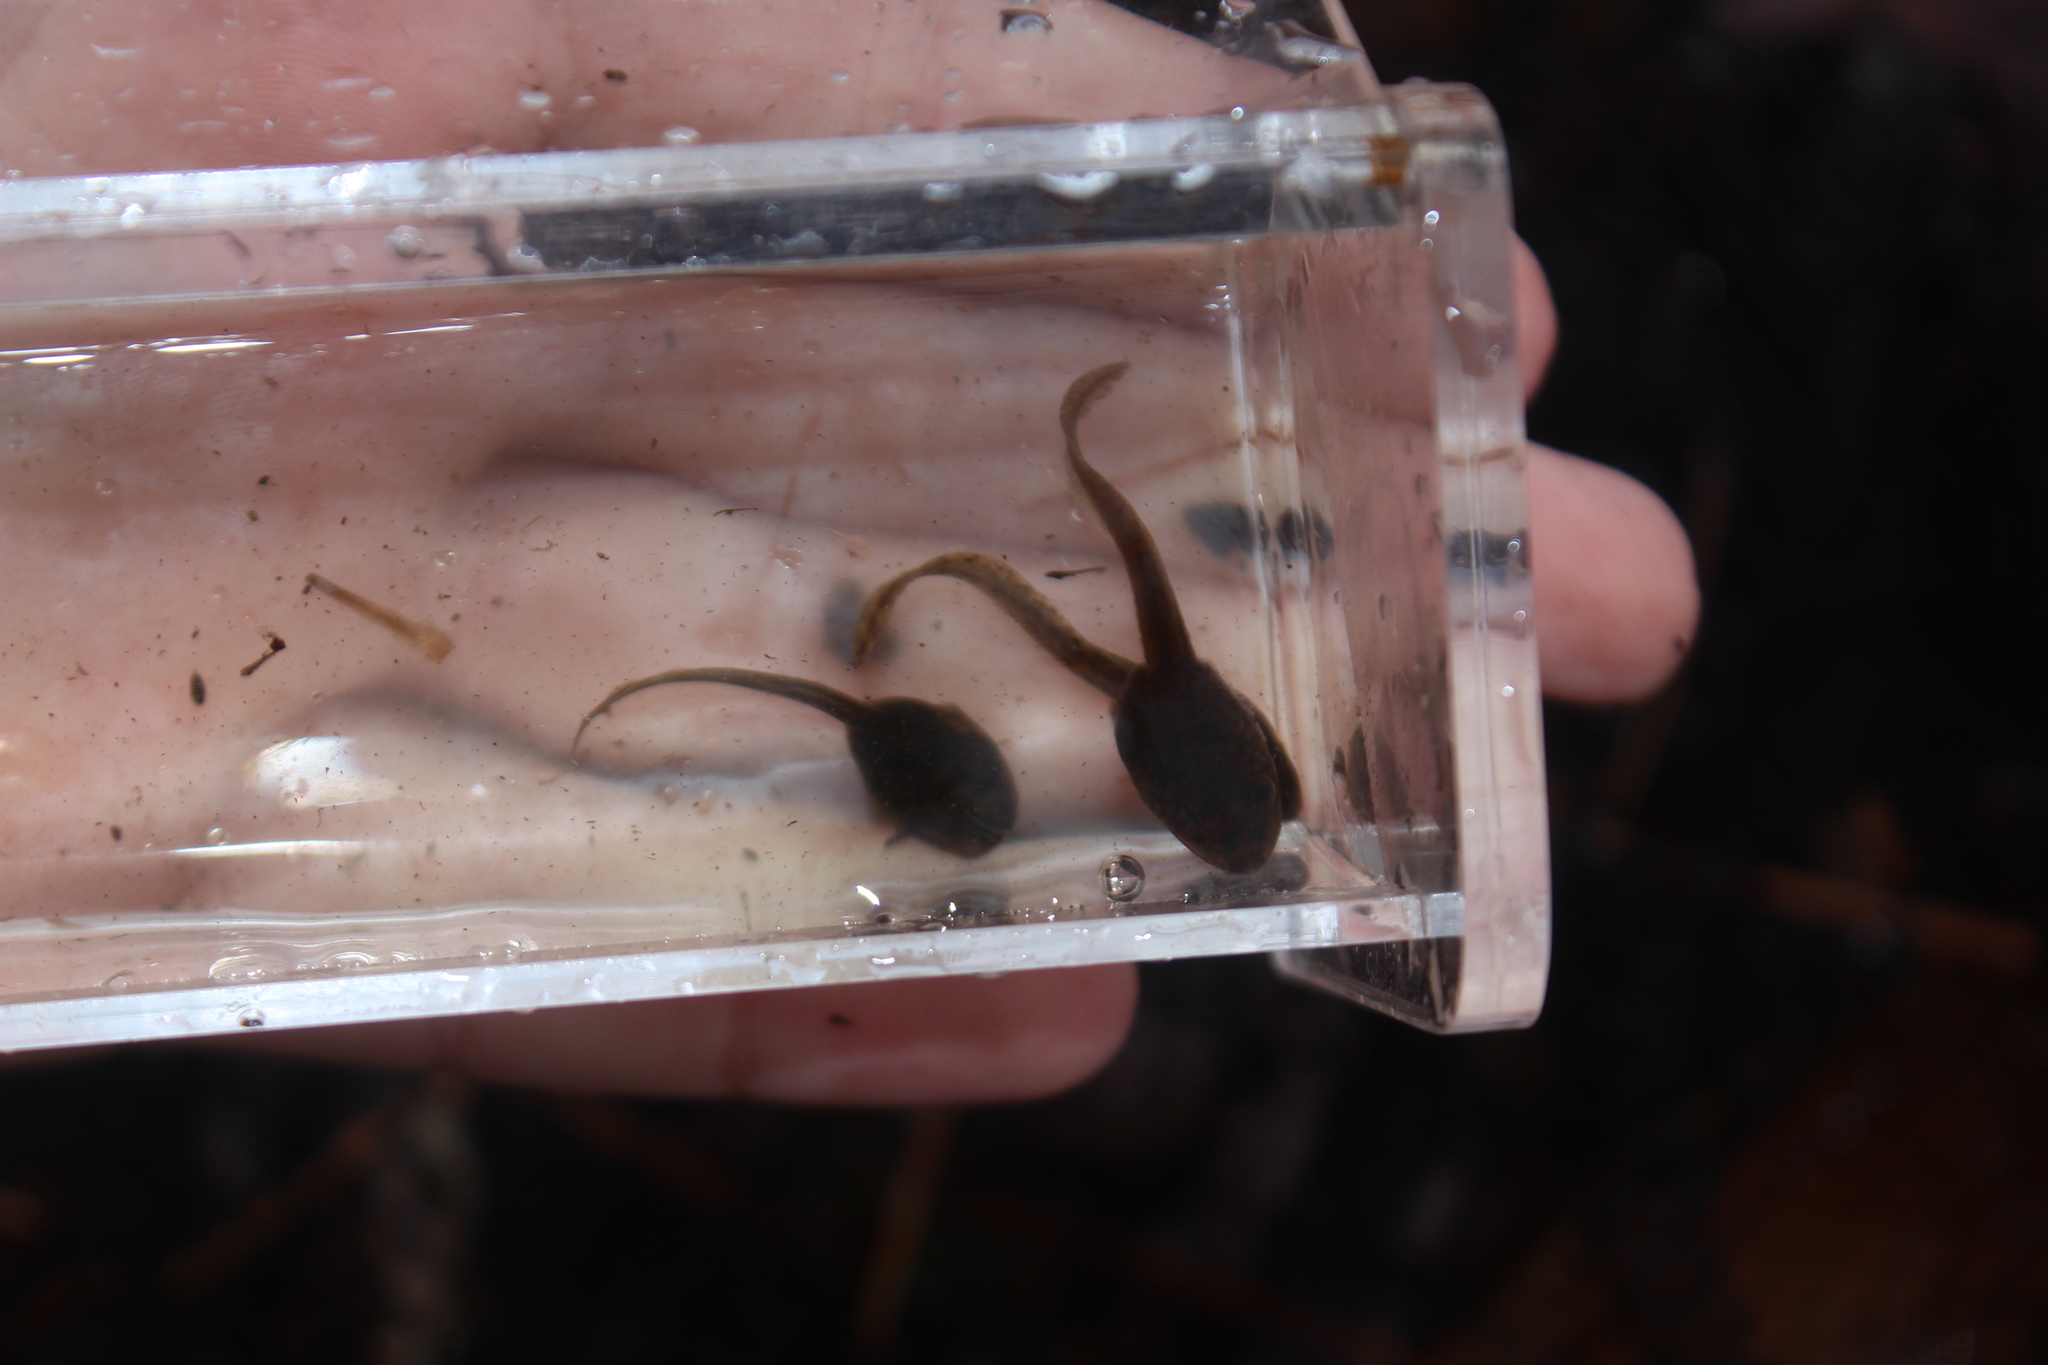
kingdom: Animalia
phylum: Chordata
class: Amphibia
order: Anura
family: Ranidae
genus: Lithobates
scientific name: Lithobates catesbeianus
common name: American bullfrog
